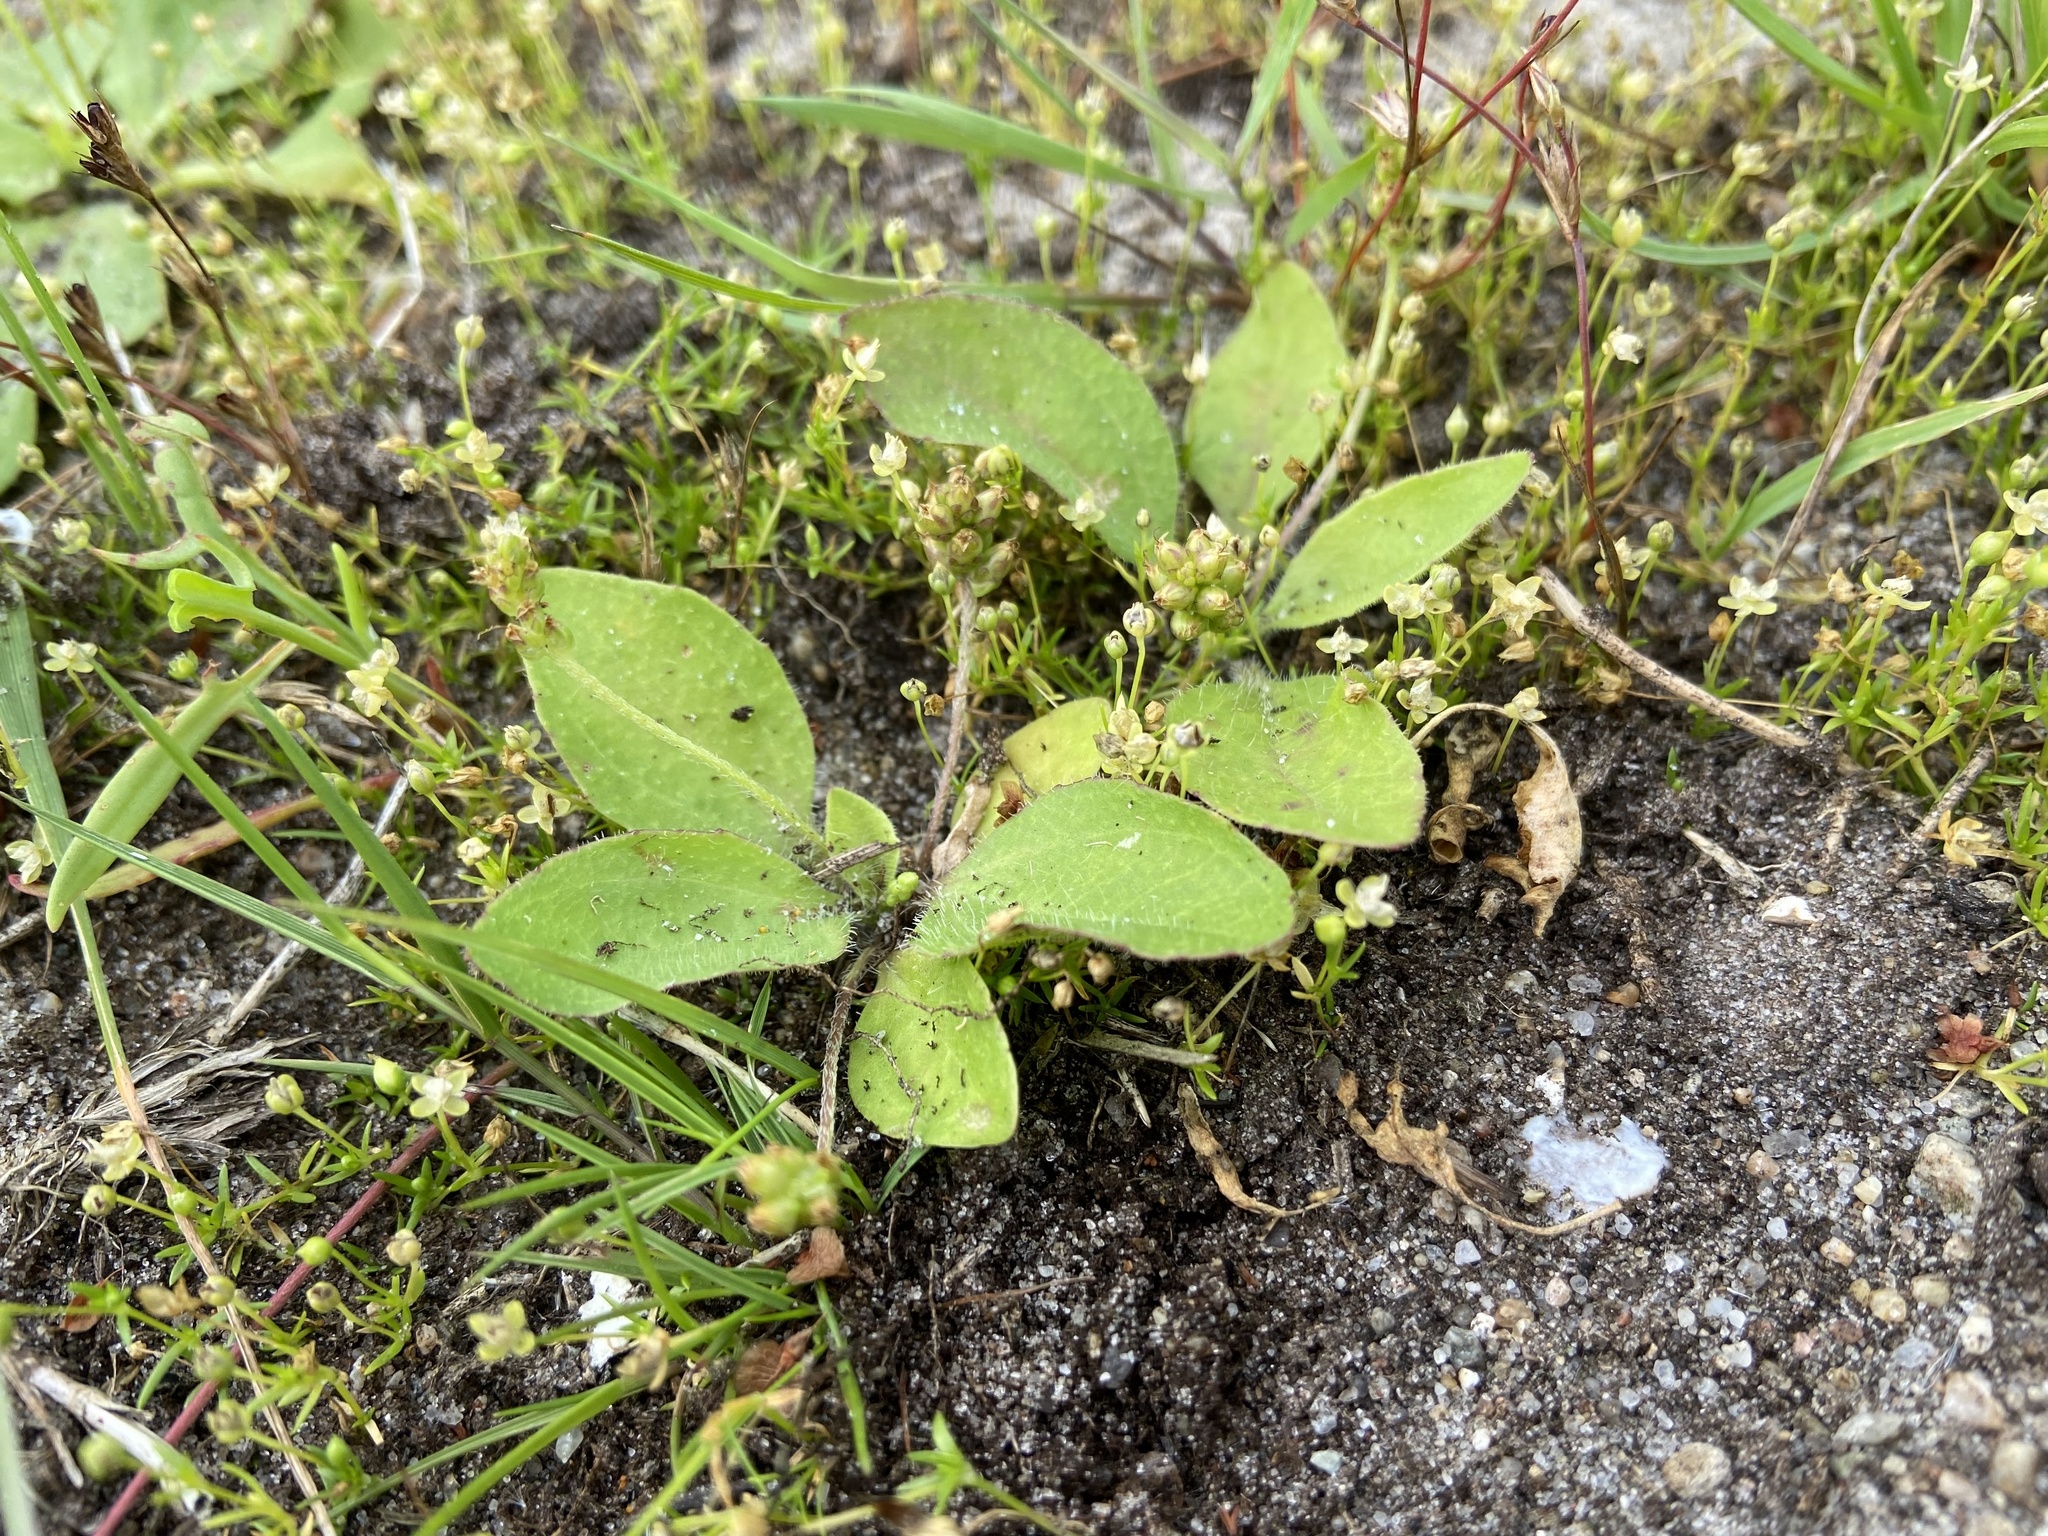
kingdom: Plantae
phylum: Tracheophyta
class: Magnoliopsida
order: Lamiales
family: Plantaginaceae
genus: Plantago
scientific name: Plantago uliginosa
